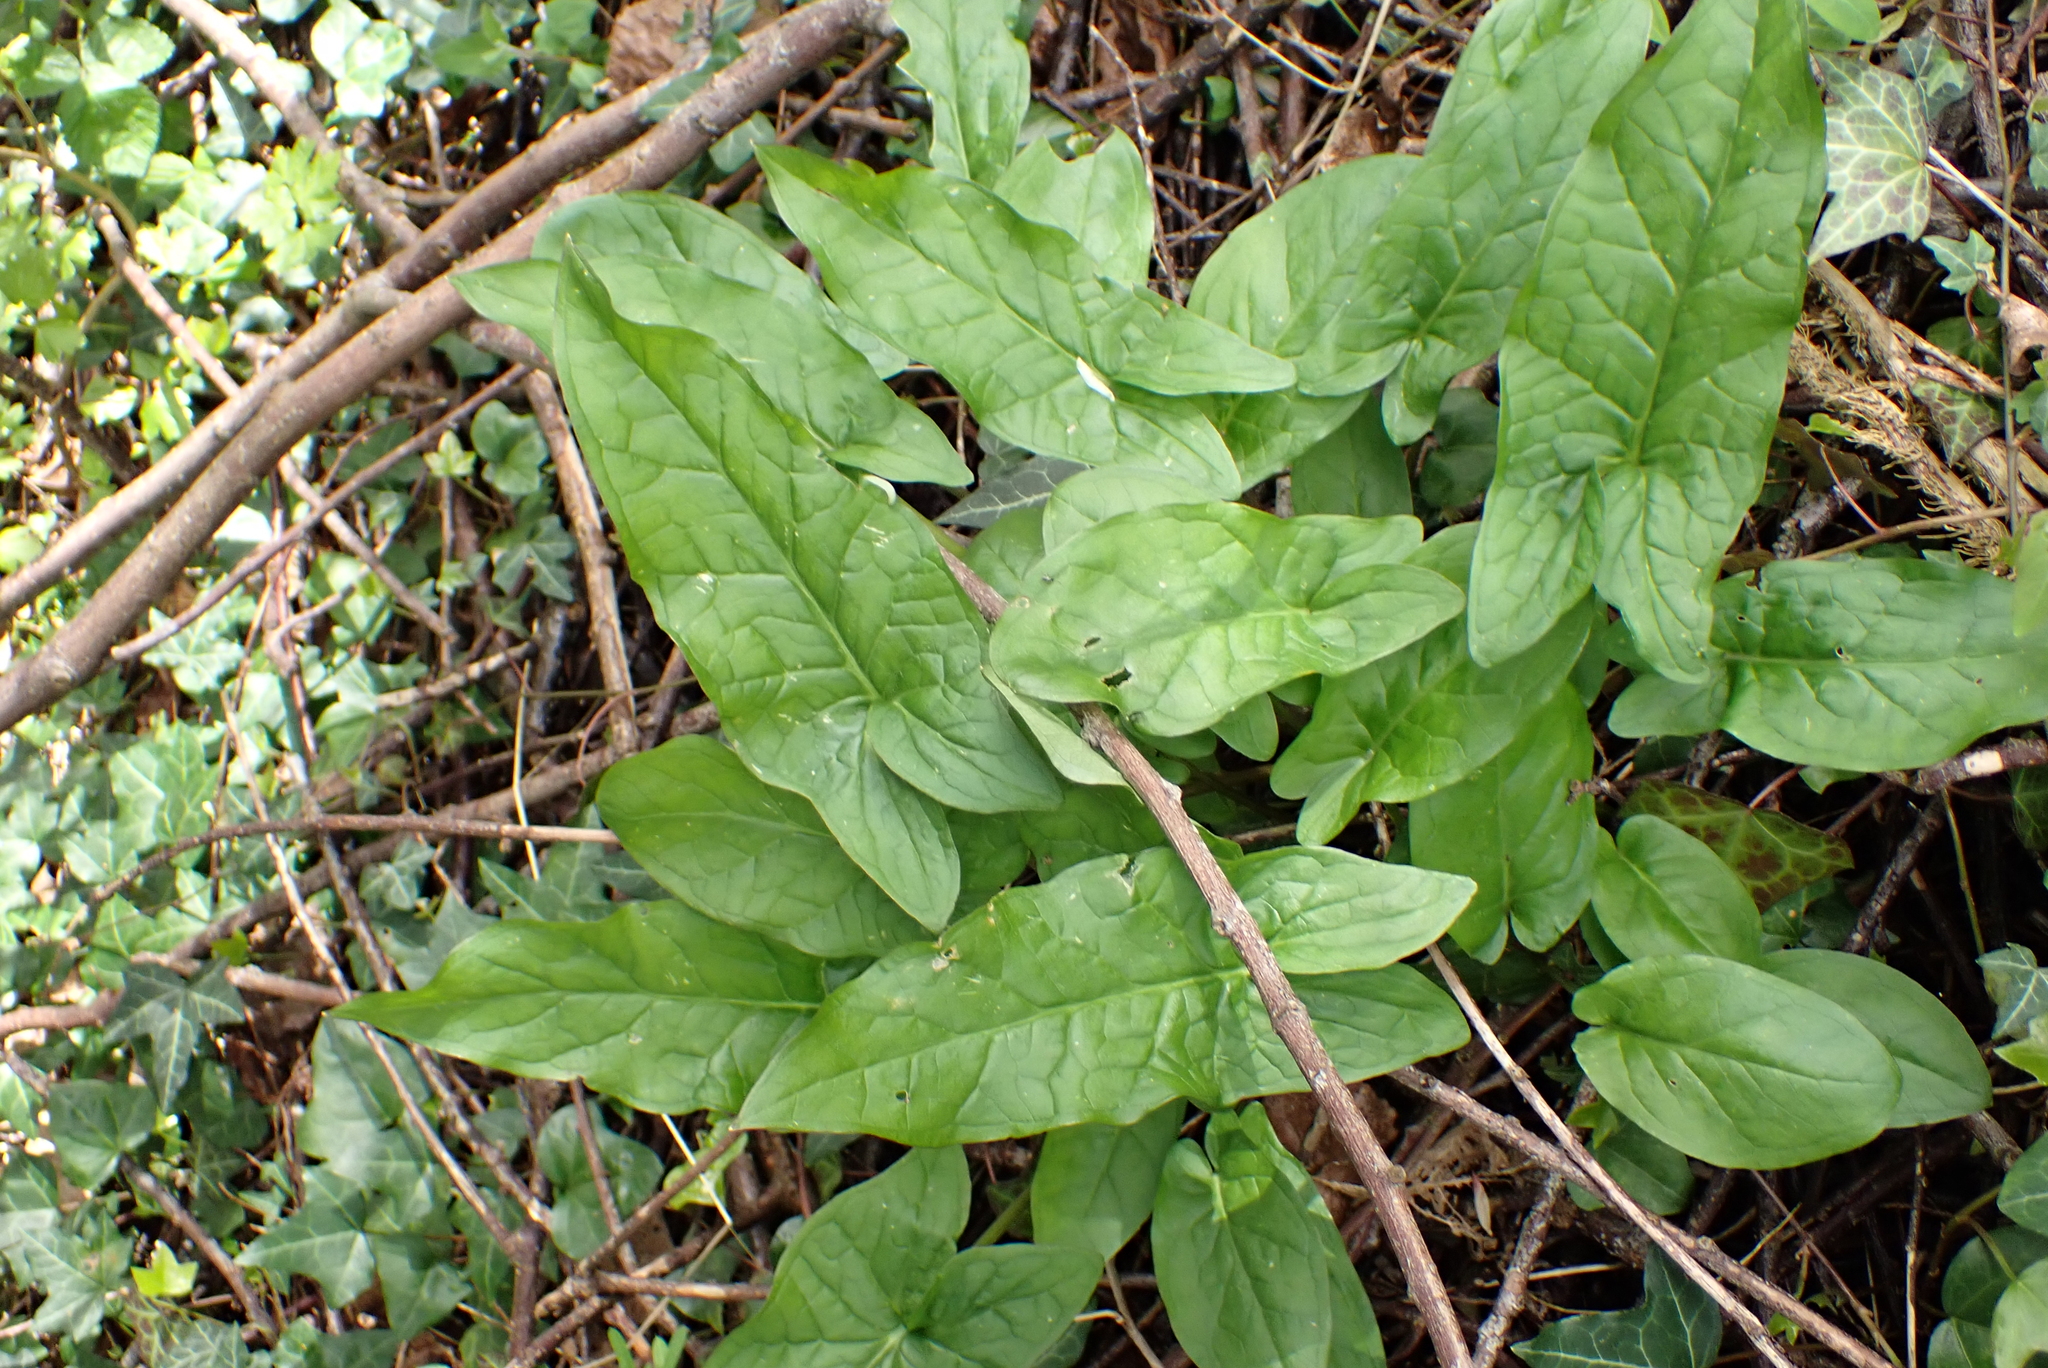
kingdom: Plantae
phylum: Tracheophyta
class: Liliopsida
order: Alismatales
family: Araceae
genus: Arum
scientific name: Arum maculatum
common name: Lords-and-ladies
